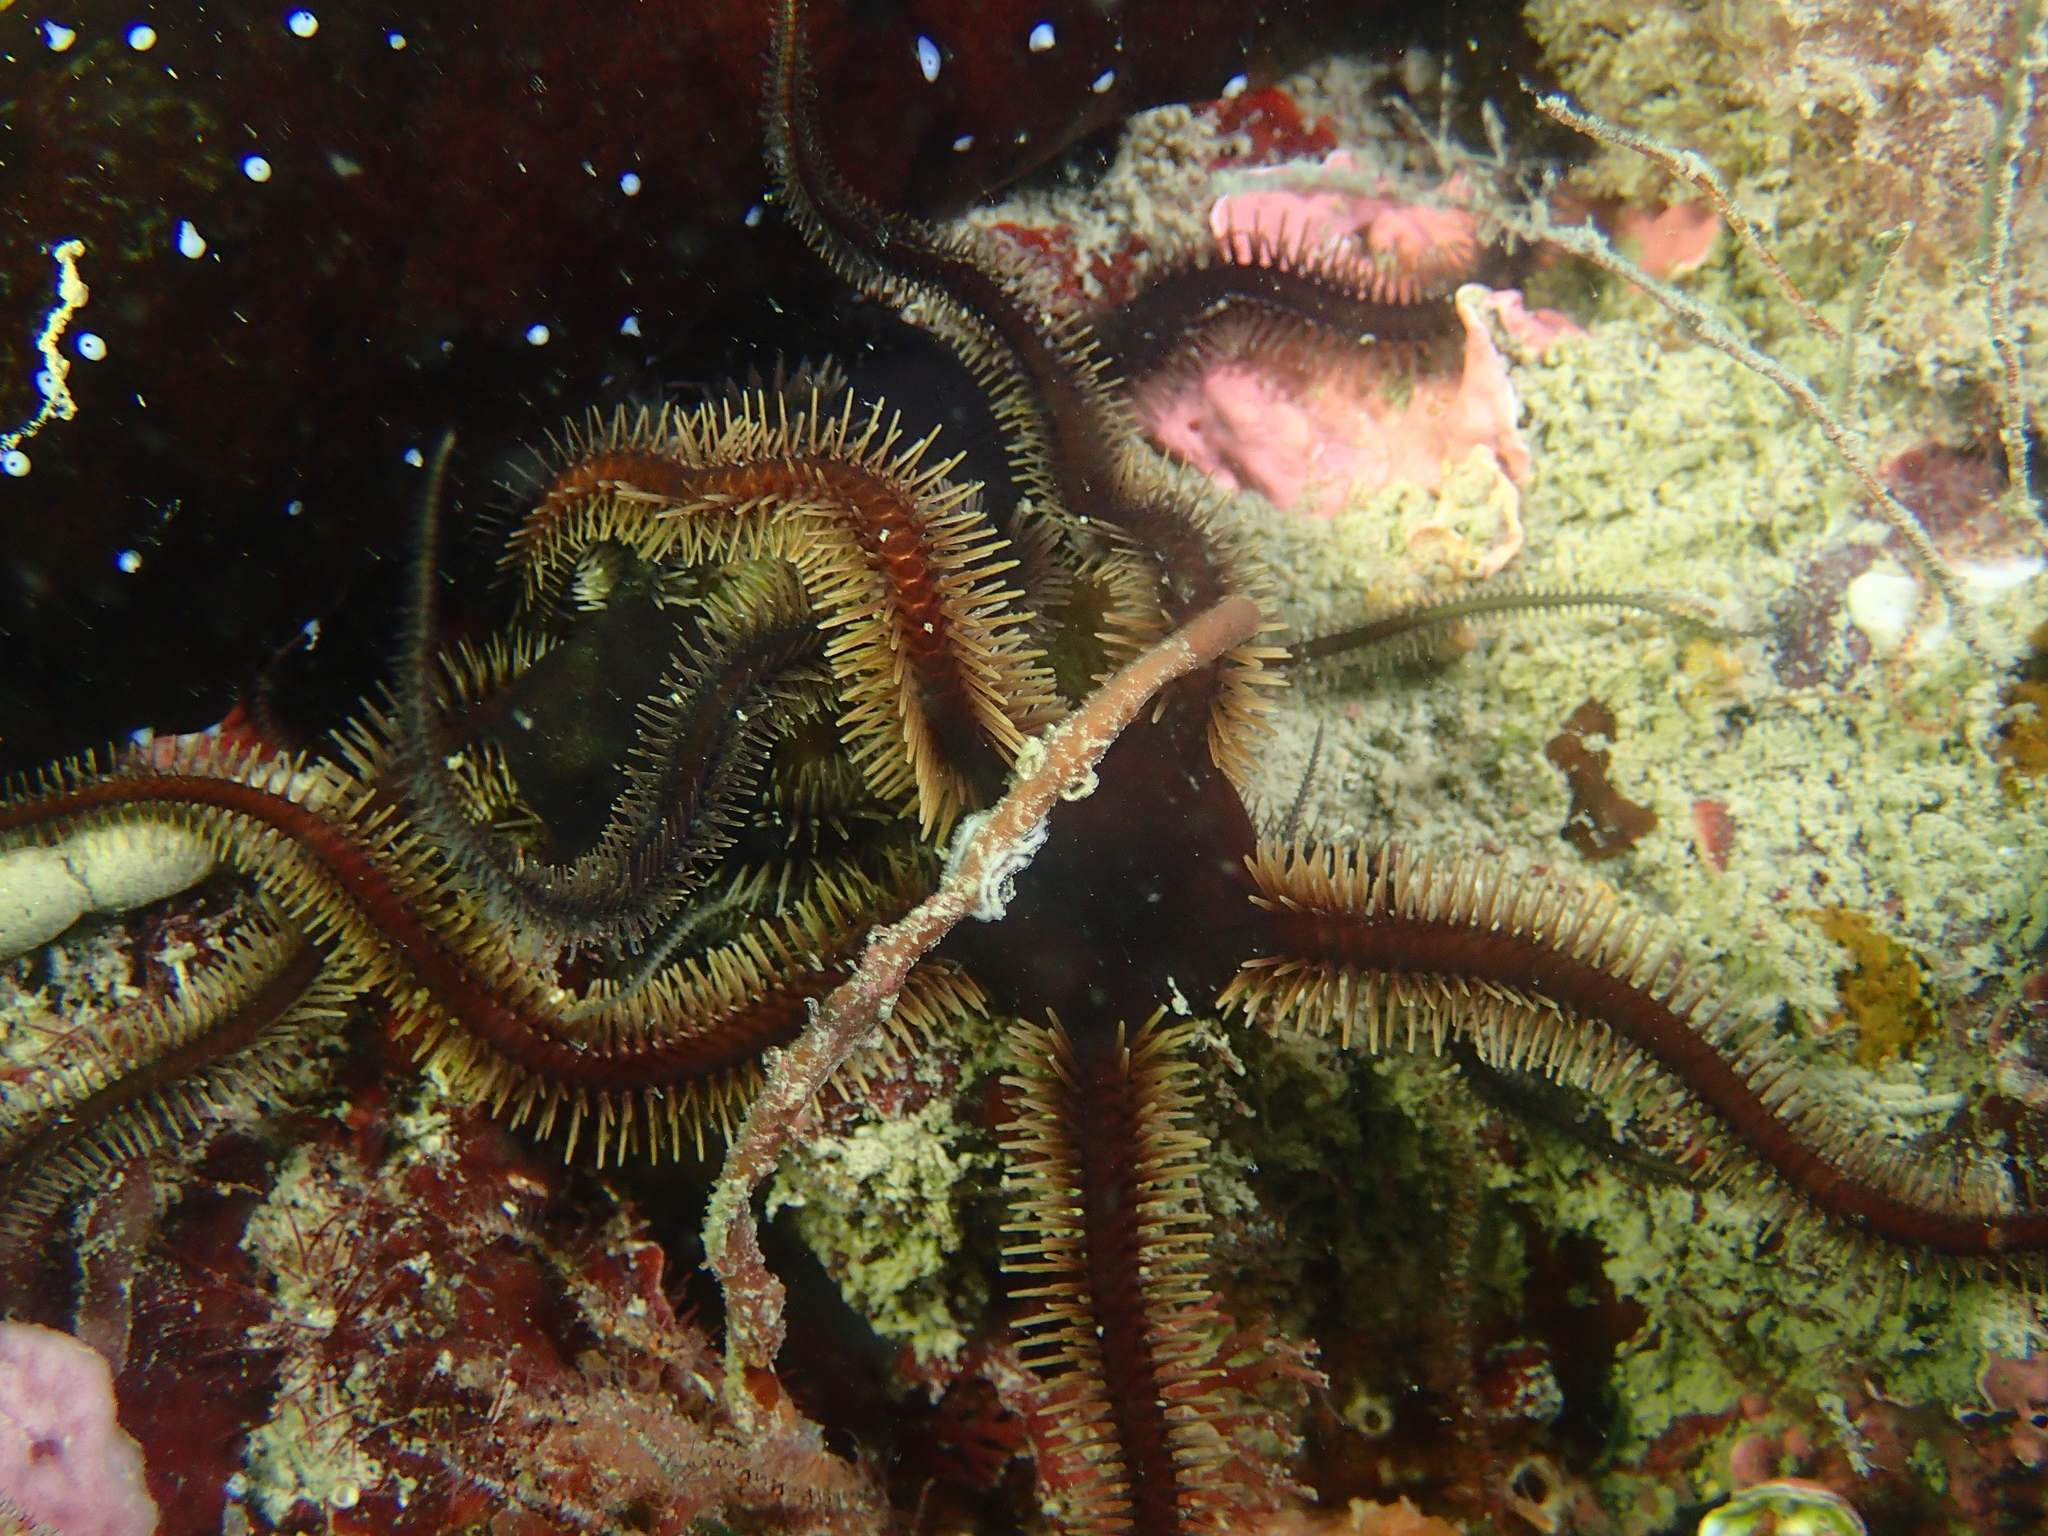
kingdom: Animalia
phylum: Echinodermata
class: Ophiuroidea
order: Ophiacanthida
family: Ophiotomidae
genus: Ophiocomina
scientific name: Ophiocomina nigra
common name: Black brittle star
